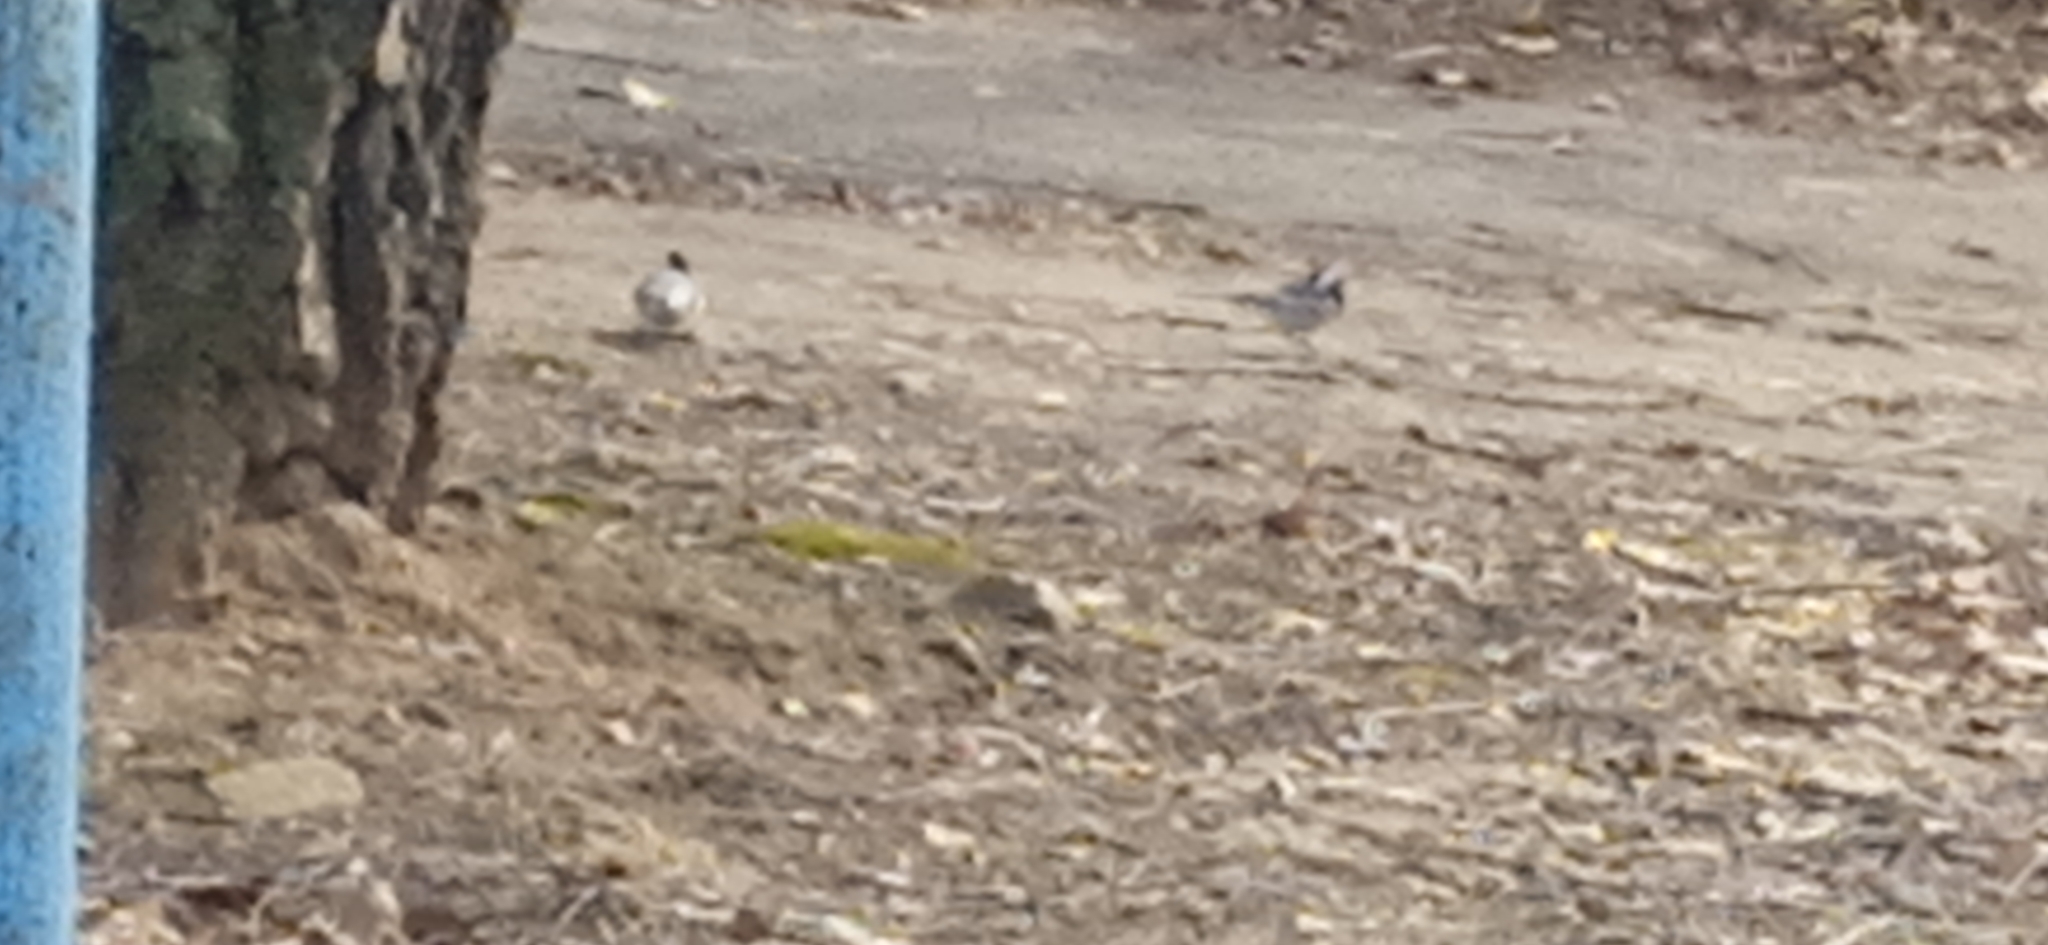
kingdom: Animalia
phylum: Chordata
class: Aves
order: Passeriformes
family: Motacillidae
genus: Motacilla
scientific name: Motacilla alba
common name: White wagtail
